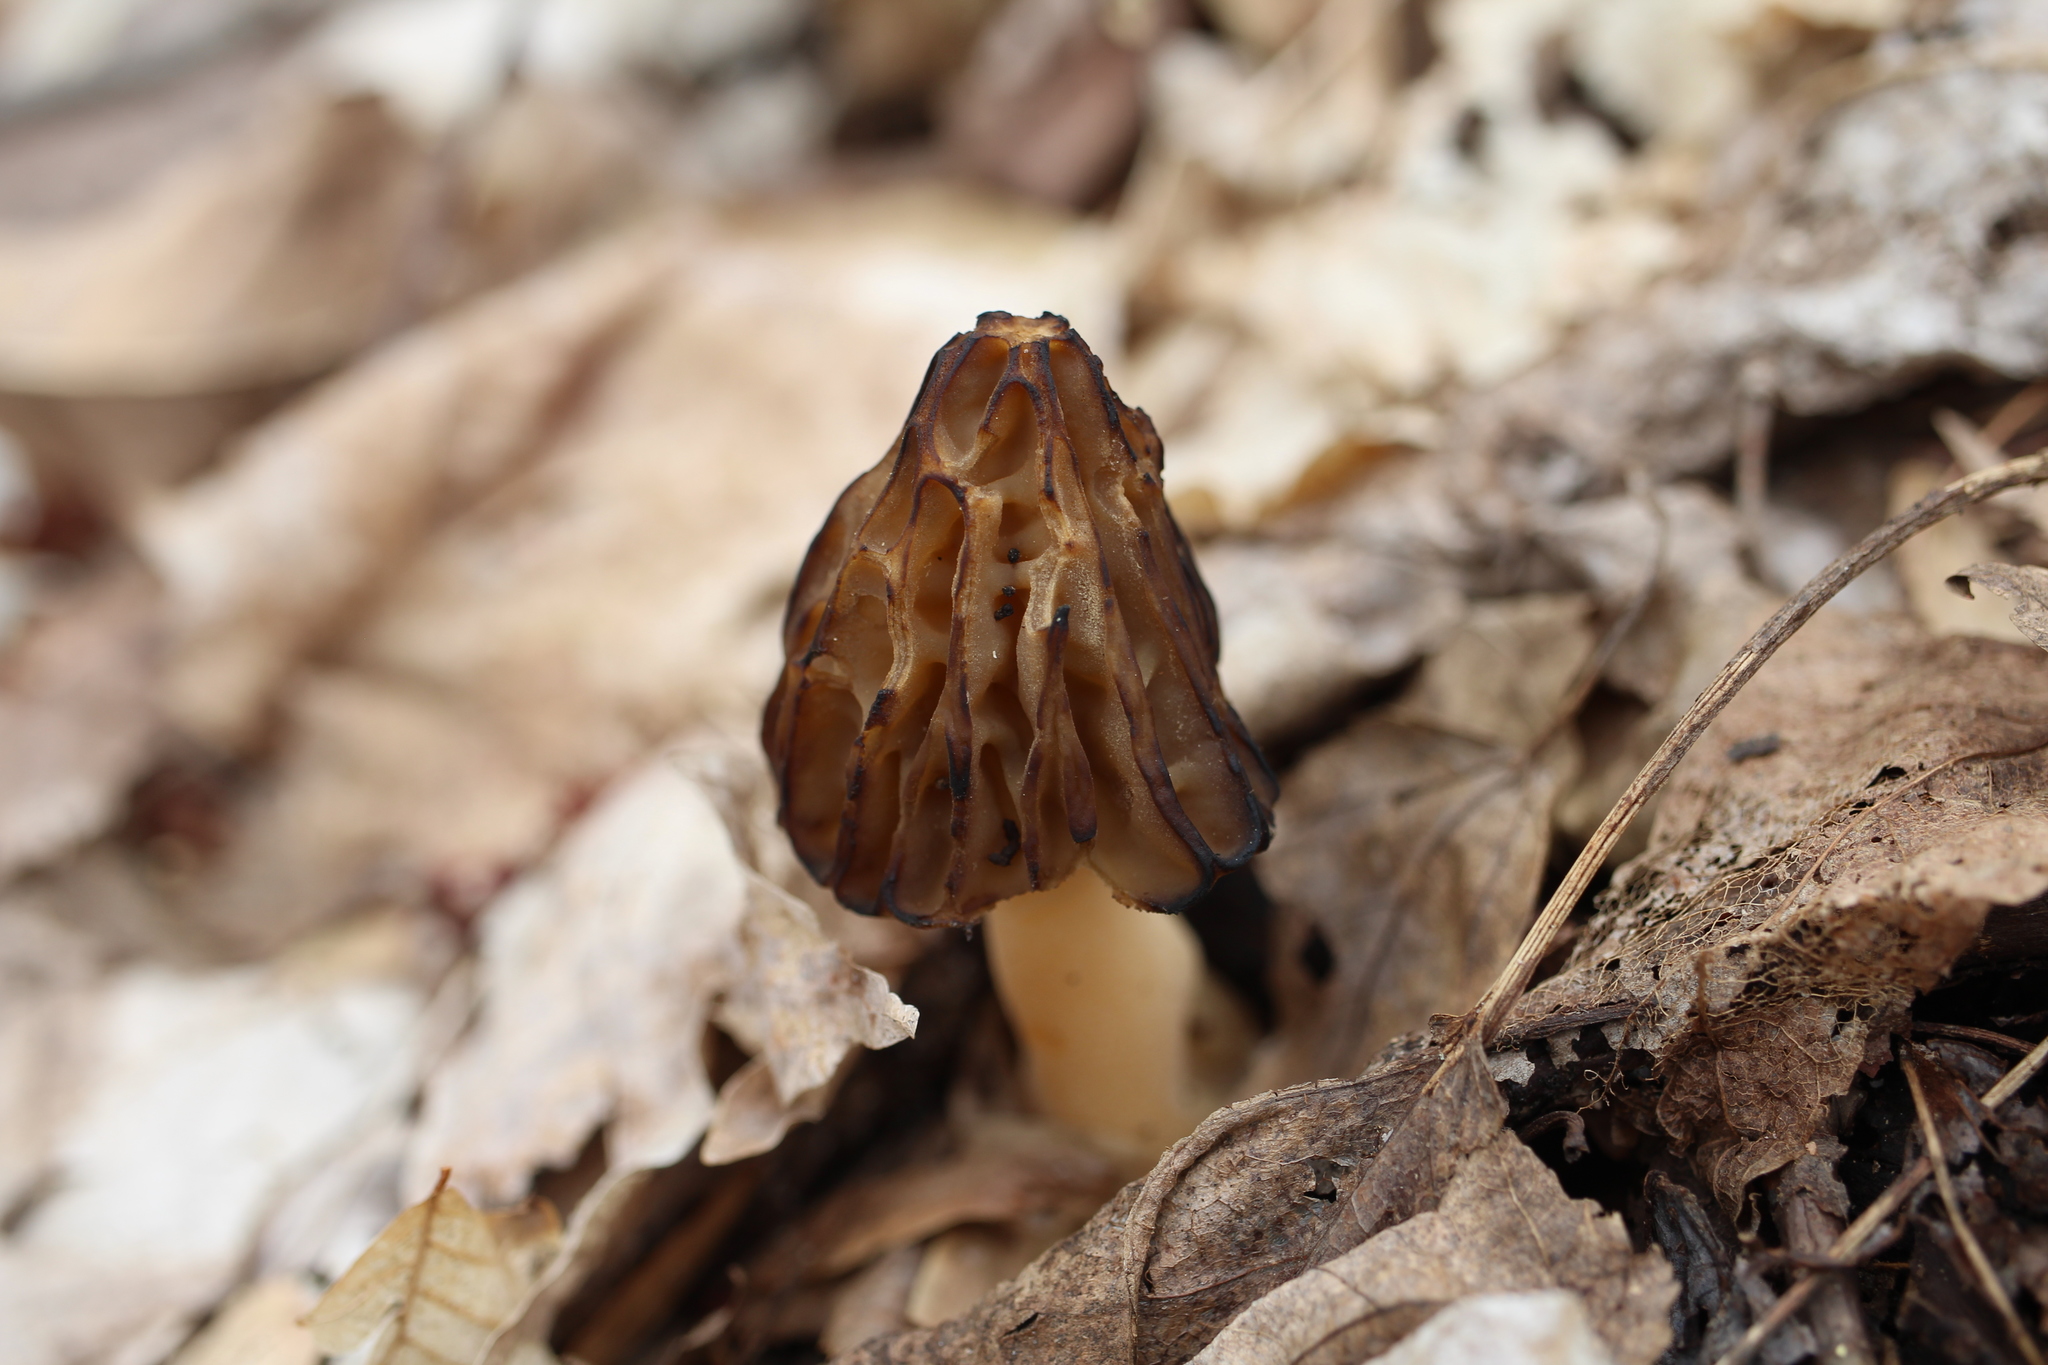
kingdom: Fungi
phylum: Ascomycota
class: Pezizomycetes
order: Pezizales
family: Morchellaceae
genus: Morchella
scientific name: Morchella punctipes
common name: Half-free morel
